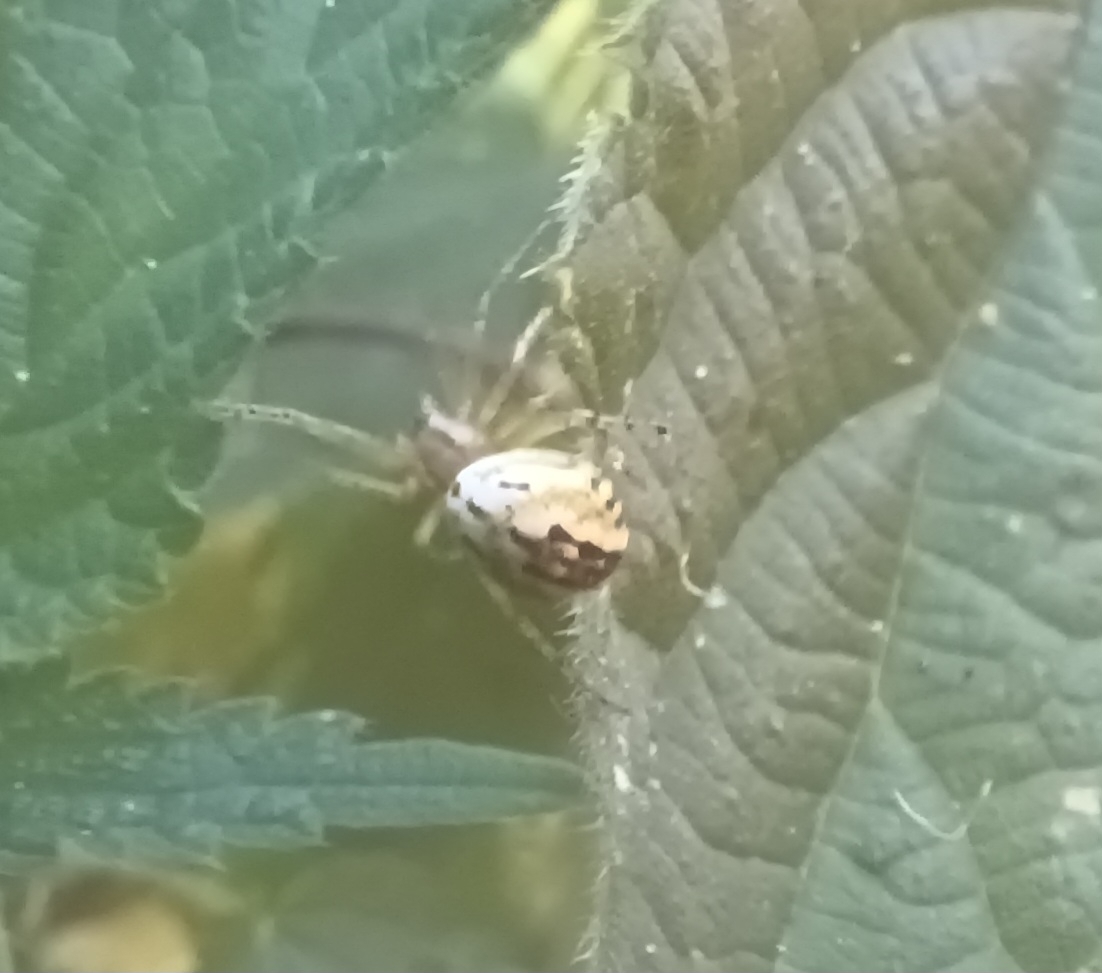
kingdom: Animalia
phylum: Arthropoda
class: Arachnida
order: Araneae
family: Araneidae
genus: Mangora
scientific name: Mangora acalypha
